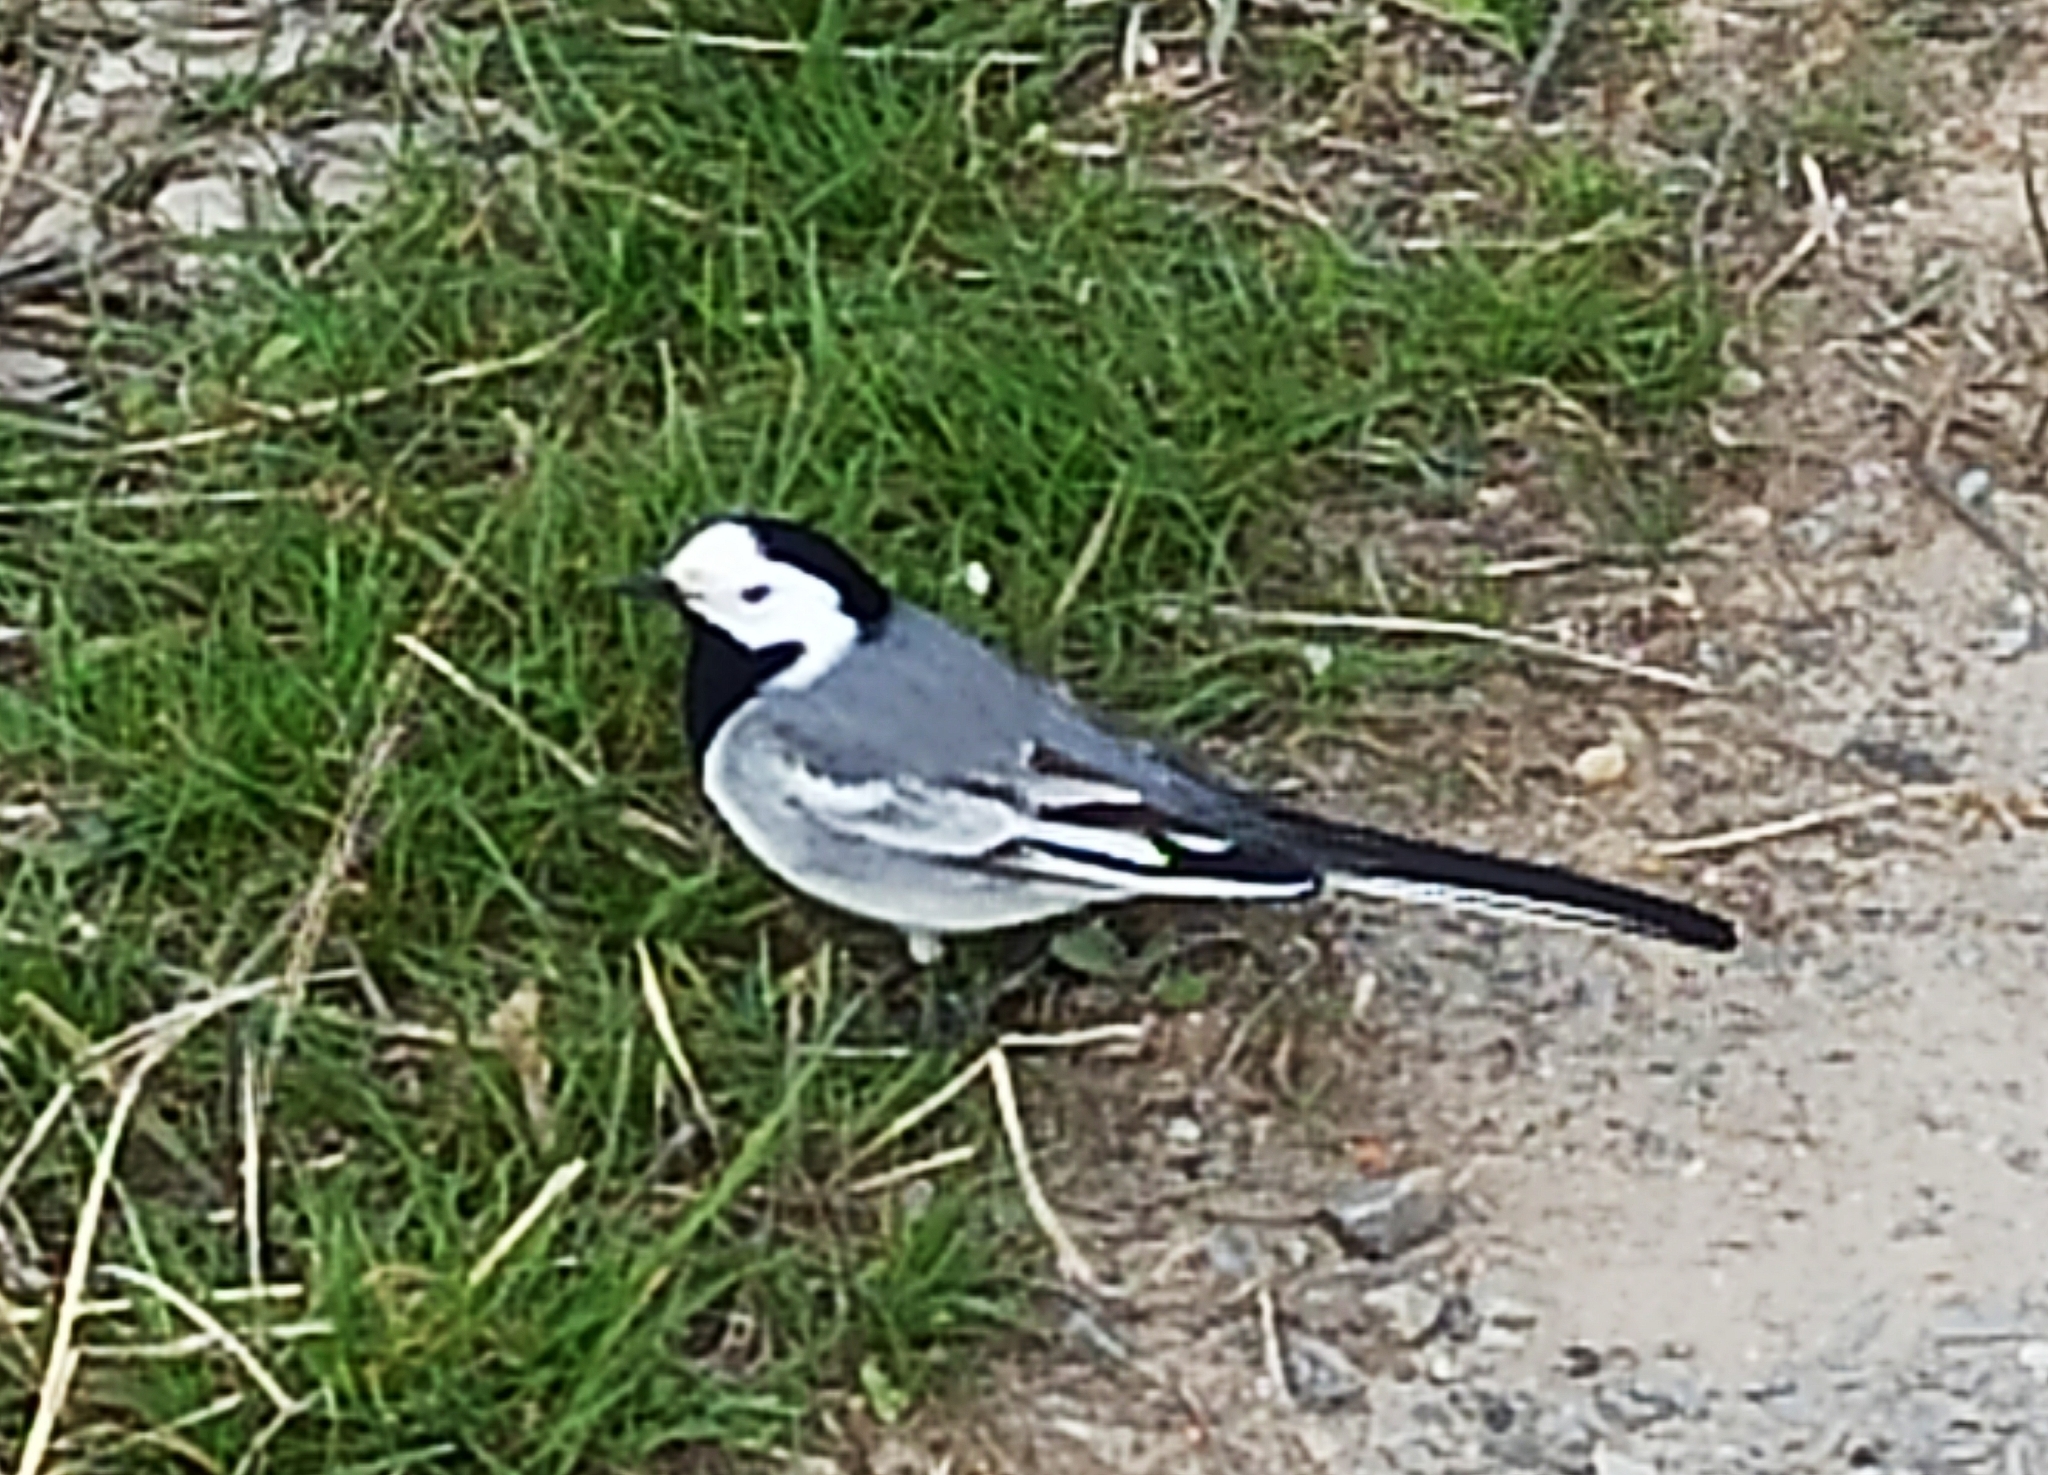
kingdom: Animalia
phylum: Chordata
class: Aves
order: Passeriformes
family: Motacillidae
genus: Motacilla
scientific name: Motacilla alba
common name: White wagtail
